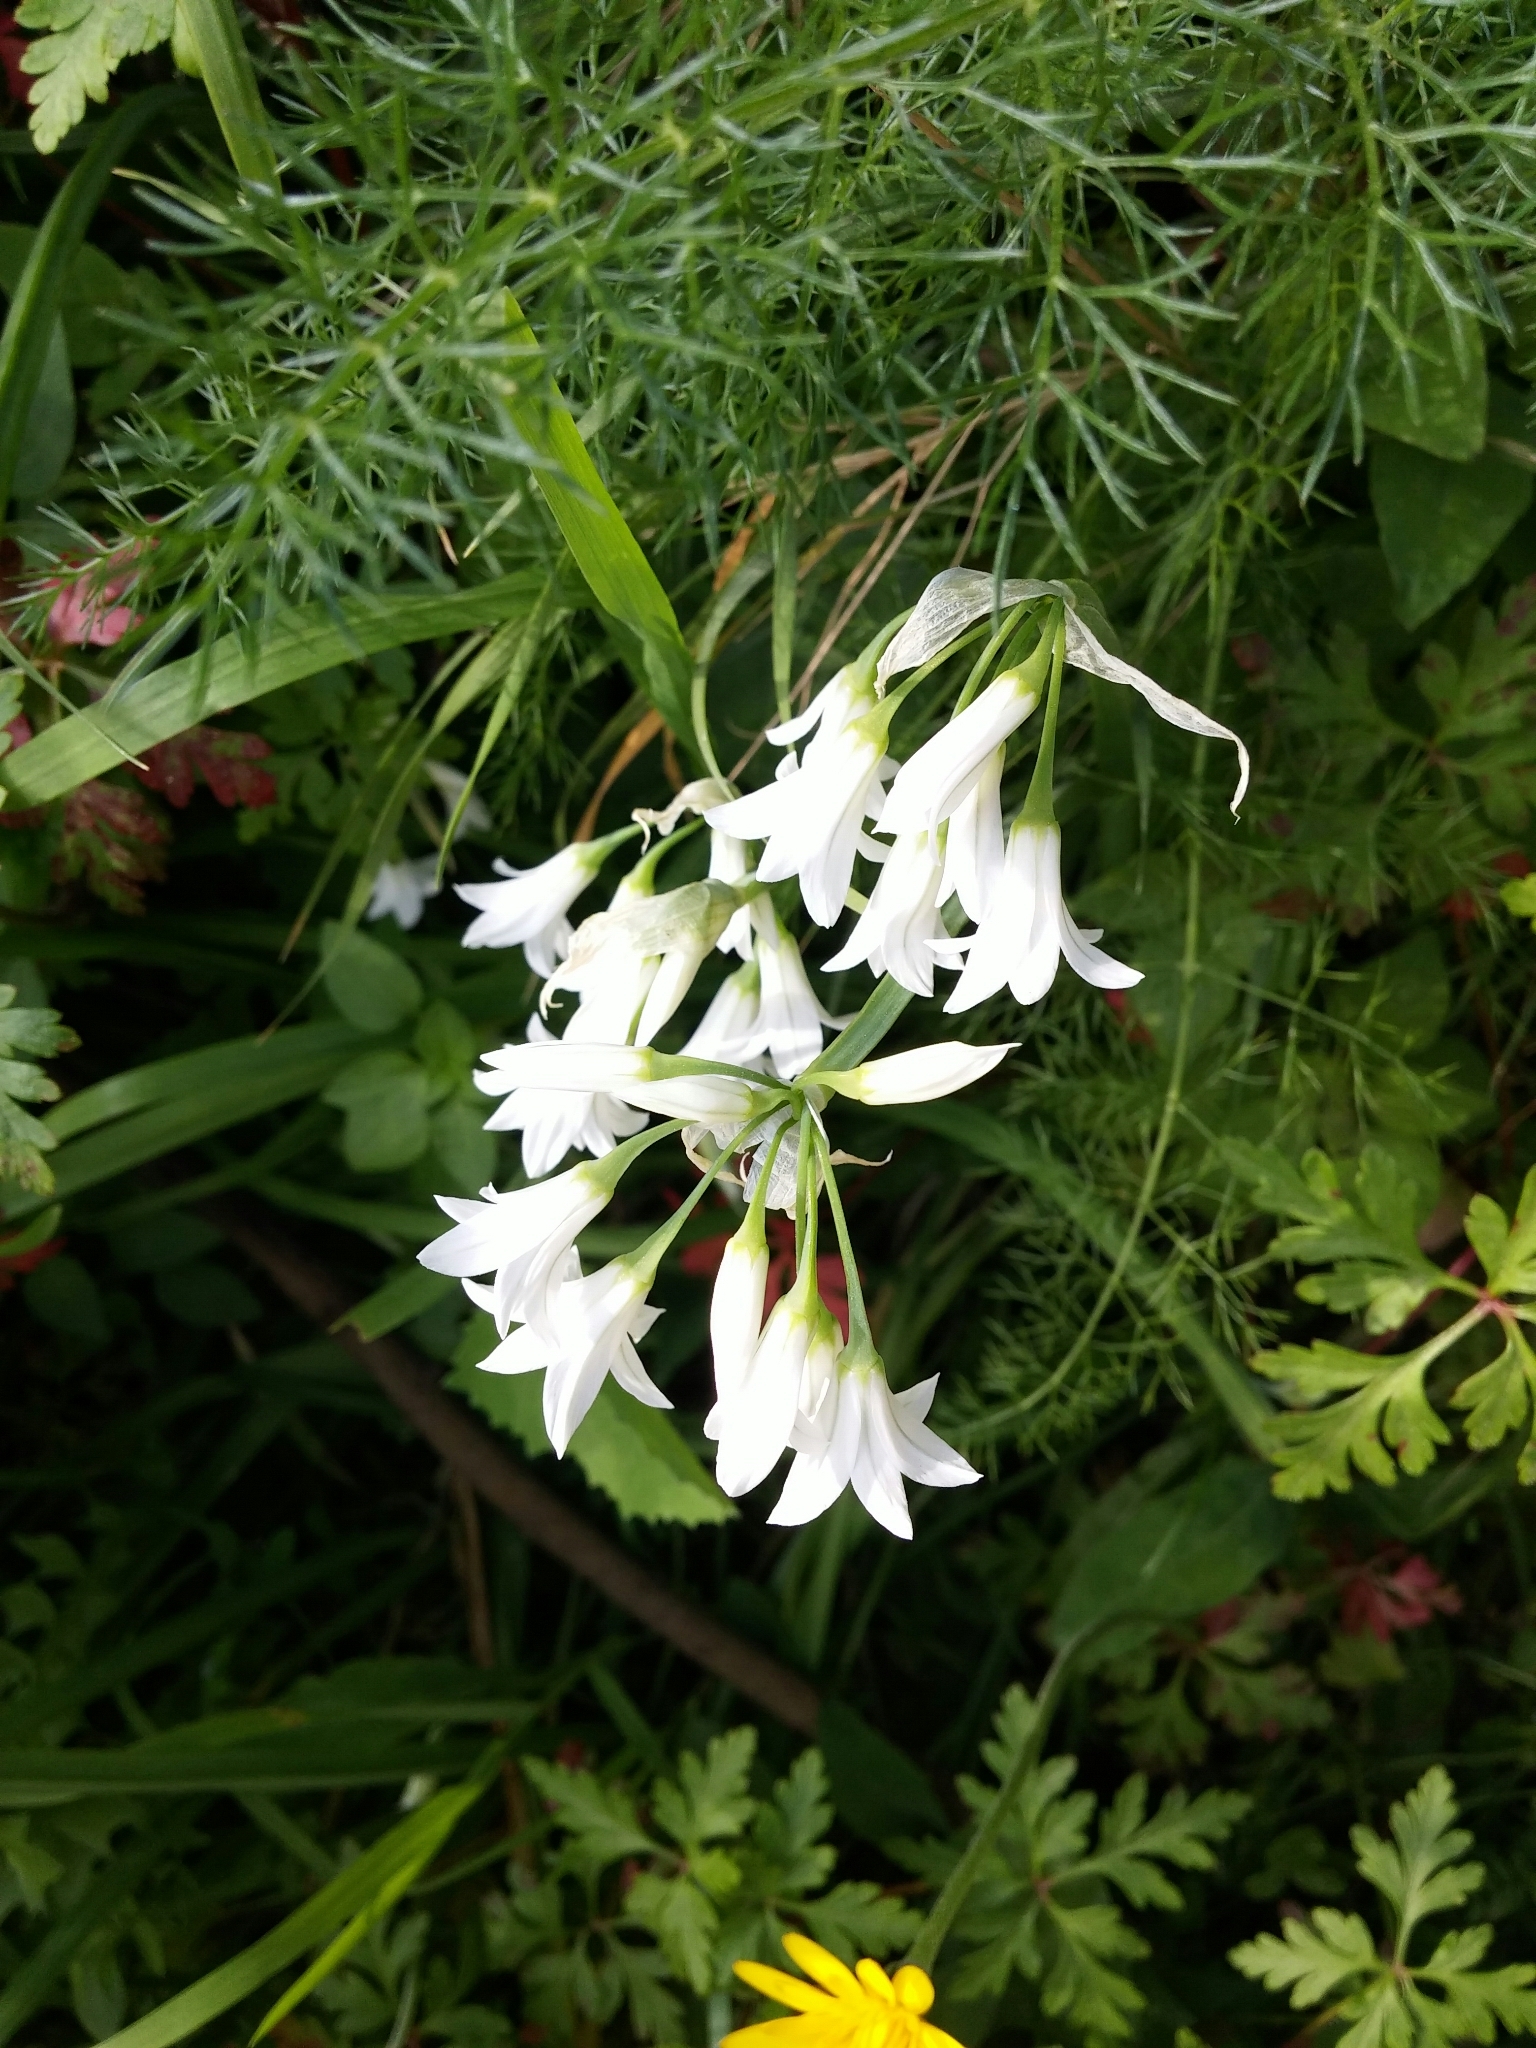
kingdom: Plantae
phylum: Tracheophyta
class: Liliopsida
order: Asparagales
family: Amaryllidaceae
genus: Allium
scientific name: Allium triquetrum
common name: Three-cornered garlic
